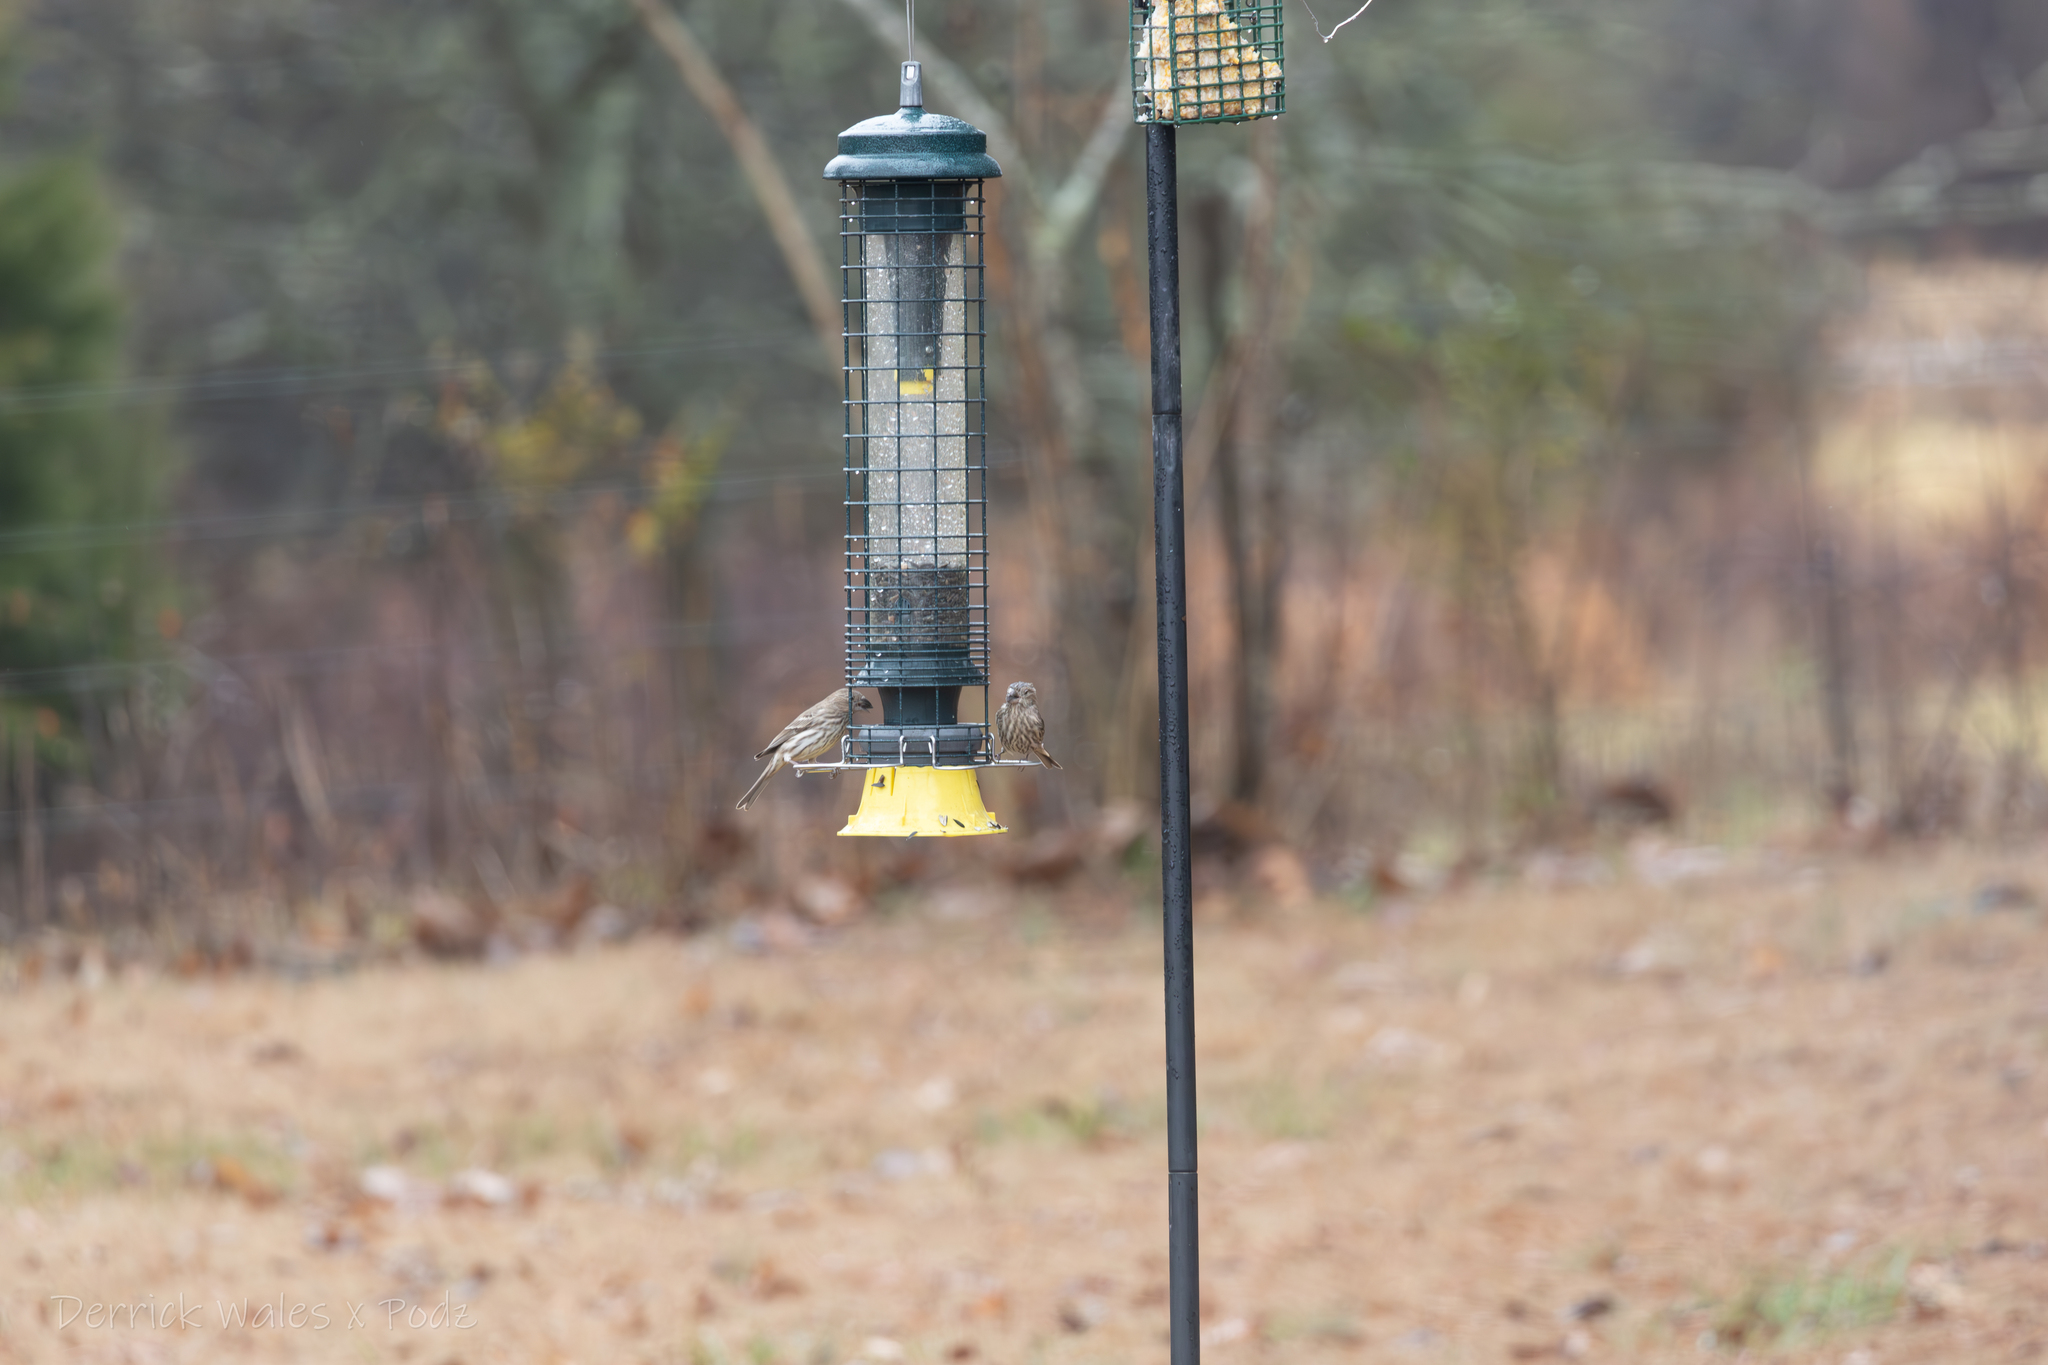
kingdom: Animalia
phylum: Chordata
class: Aves
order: Passeriformes
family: Fringillidae
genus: Haemorhous
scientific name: Haemorhous mexicanus
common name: House finch
